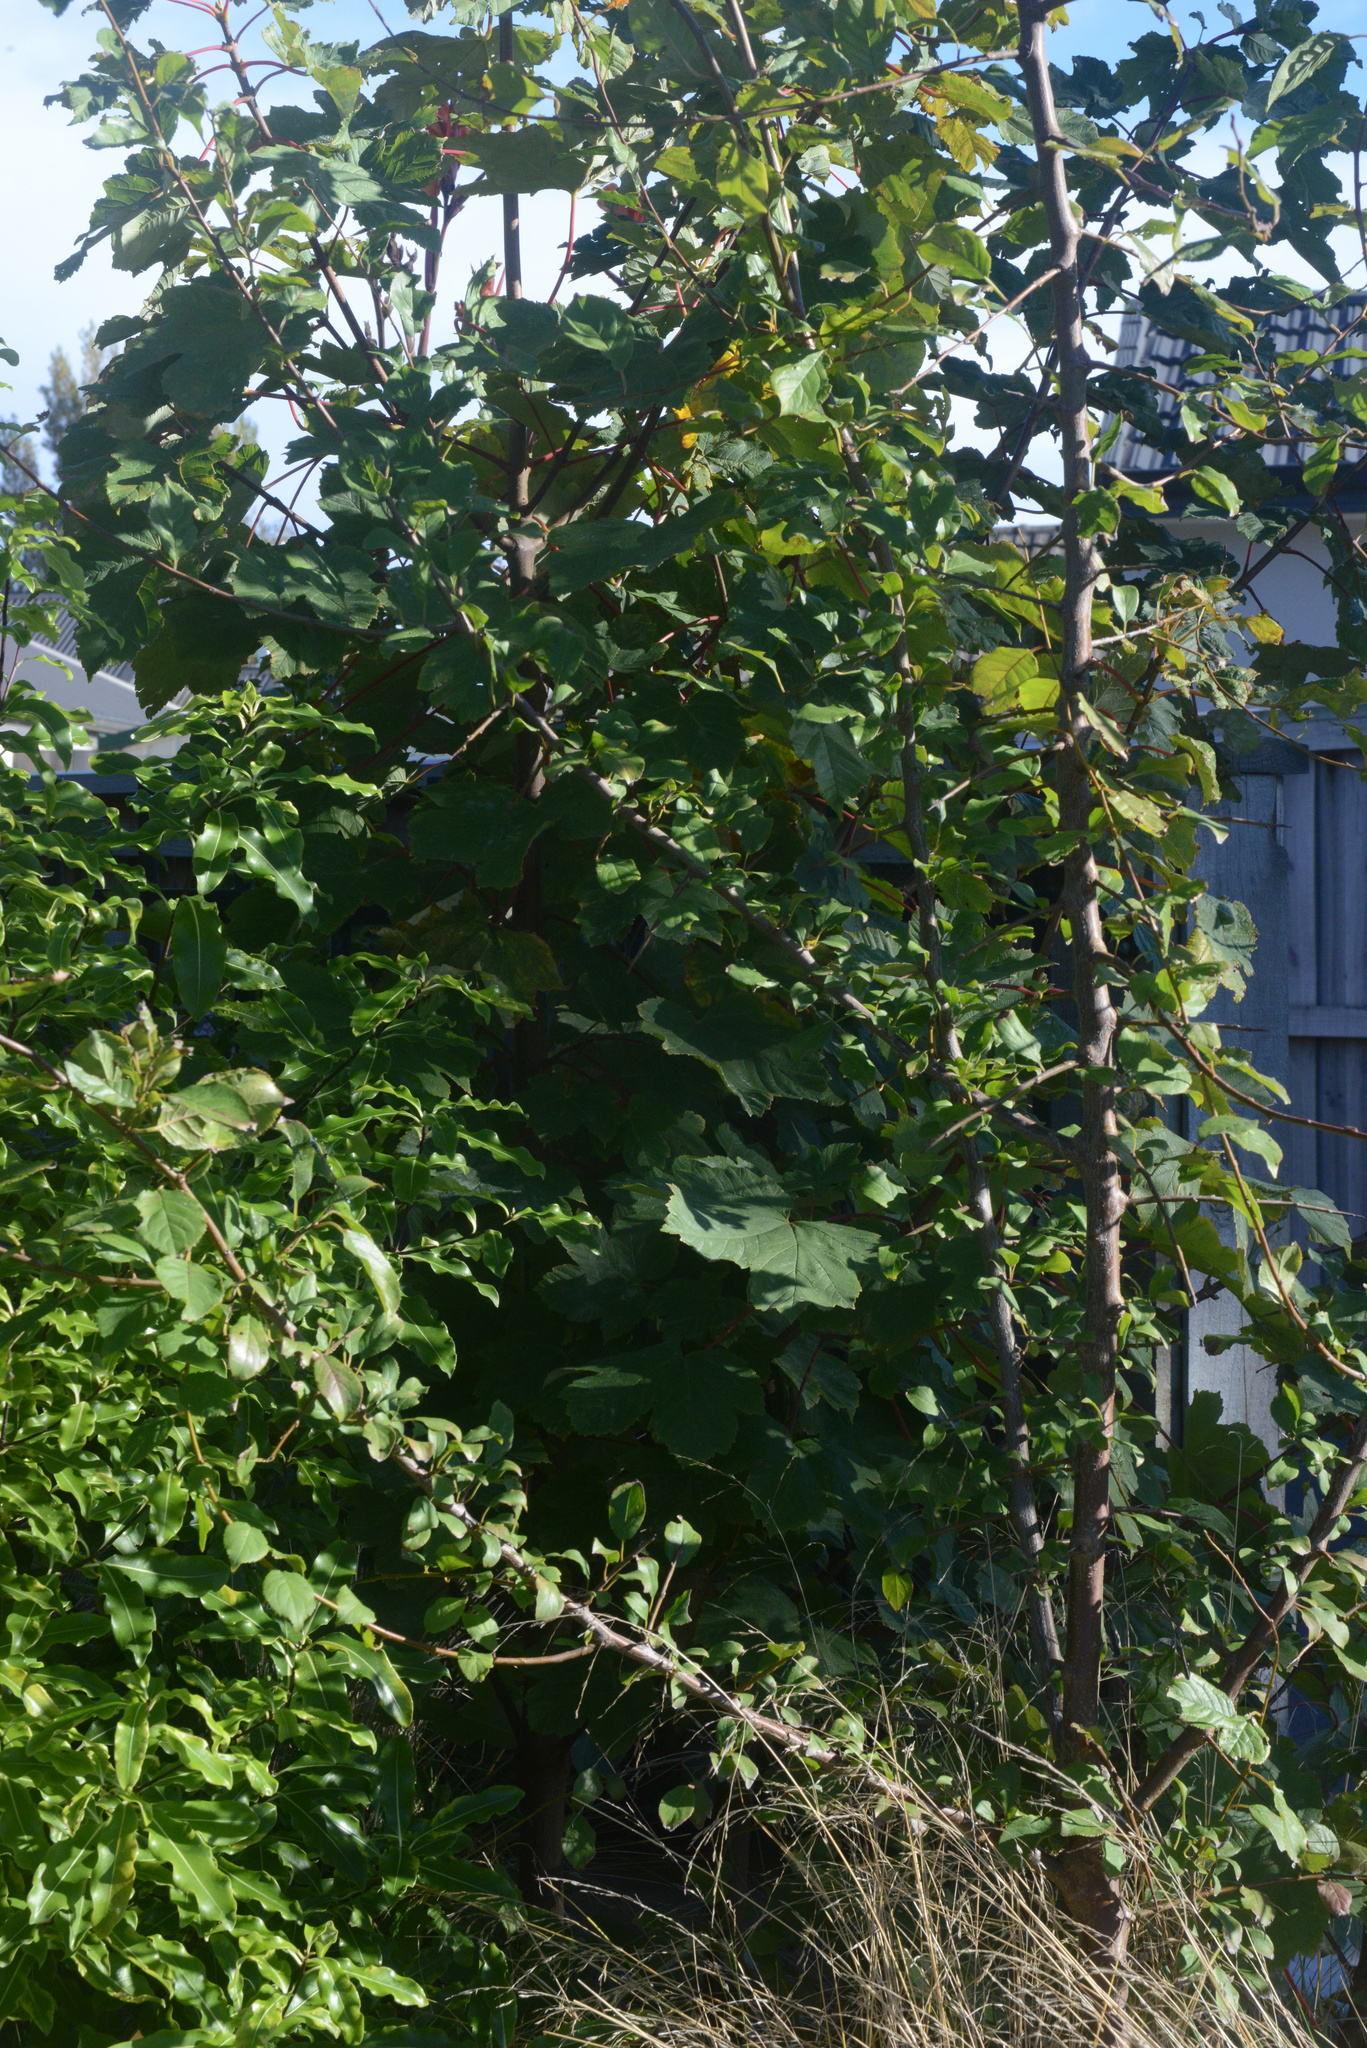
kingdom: Plantae
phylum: Tracheophyta
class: Magnoliopsida
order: Sapindales
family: Sapindaceae
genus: Acer
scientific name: Acer pseudoplatanus
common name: Sycamore
